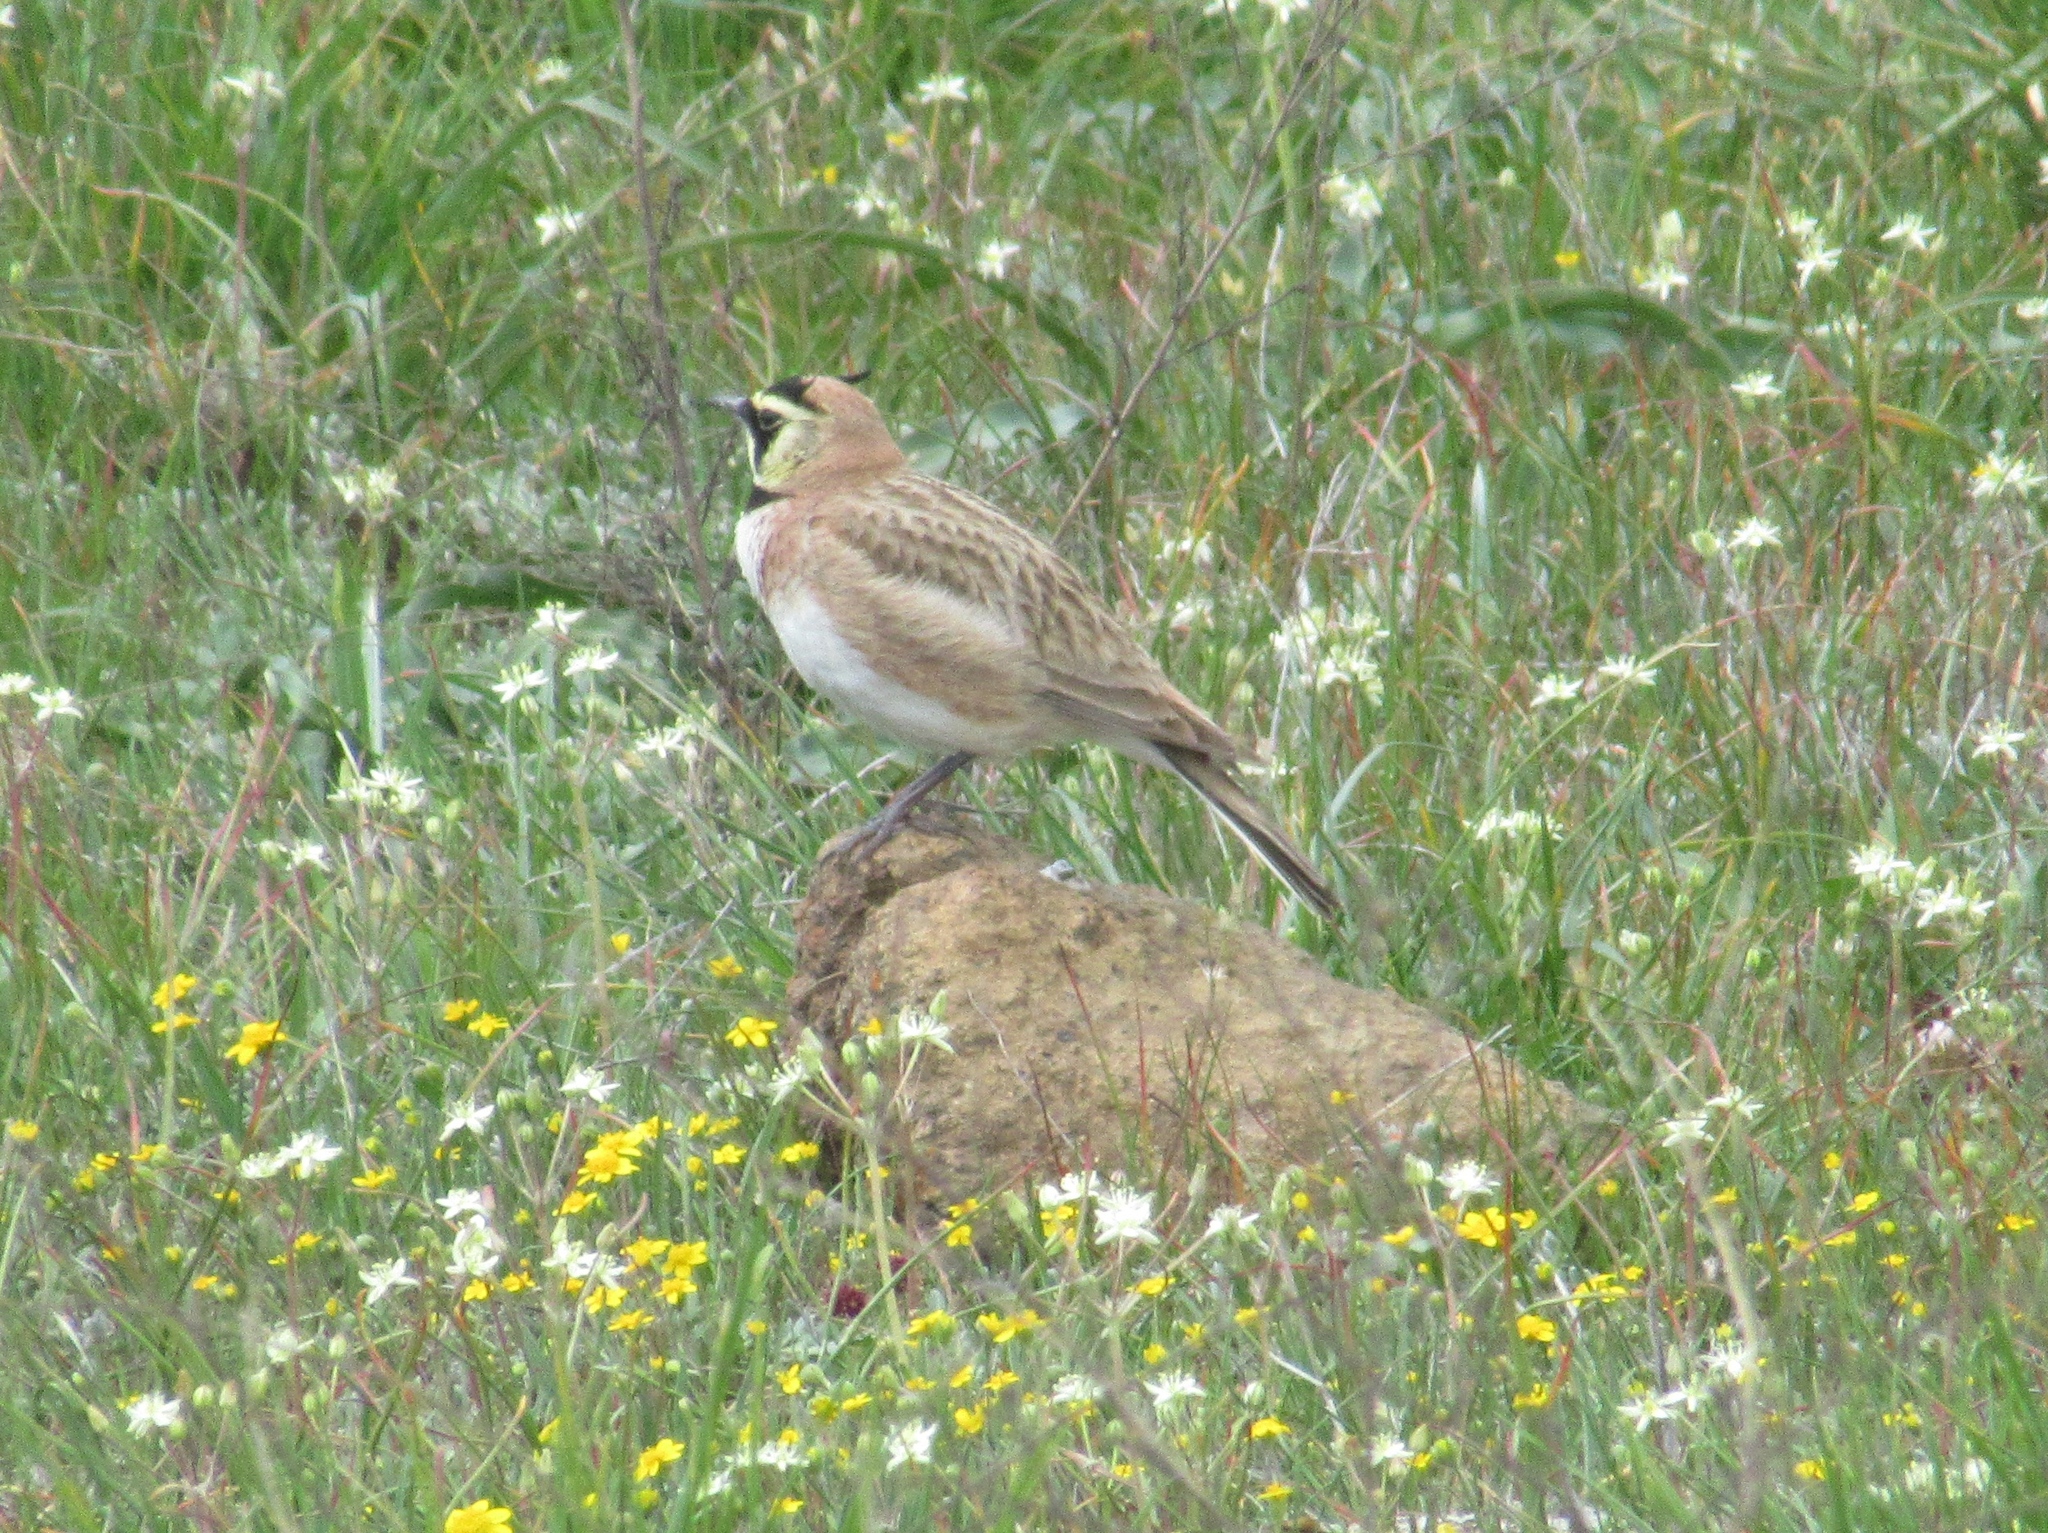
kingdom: Animalia
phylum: Chordata
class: Aves
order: Passeriformes
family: Alaudidae
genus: Eremophila
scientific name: Eremophila alpestris
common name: Horned lark
